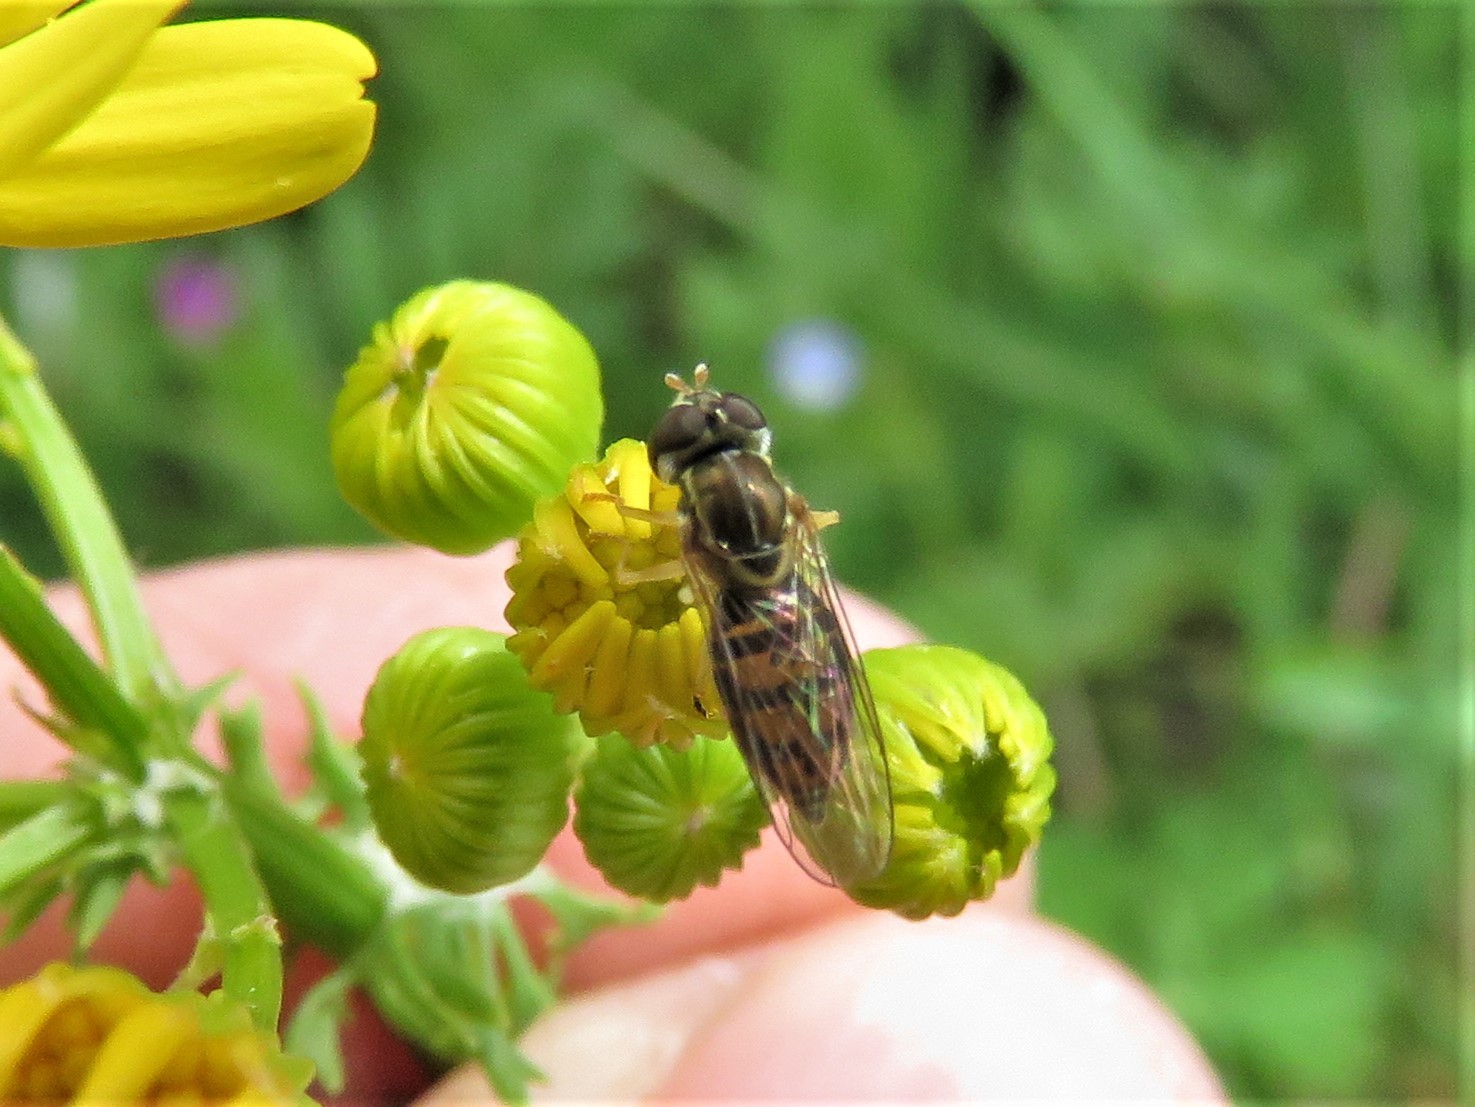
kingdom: Animalia
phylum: Arthropoda
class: Insecta
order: Diptera
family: Syrphidae
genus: Toxomerus
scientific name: Toxomerus marginatus
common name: Syrphid fly
